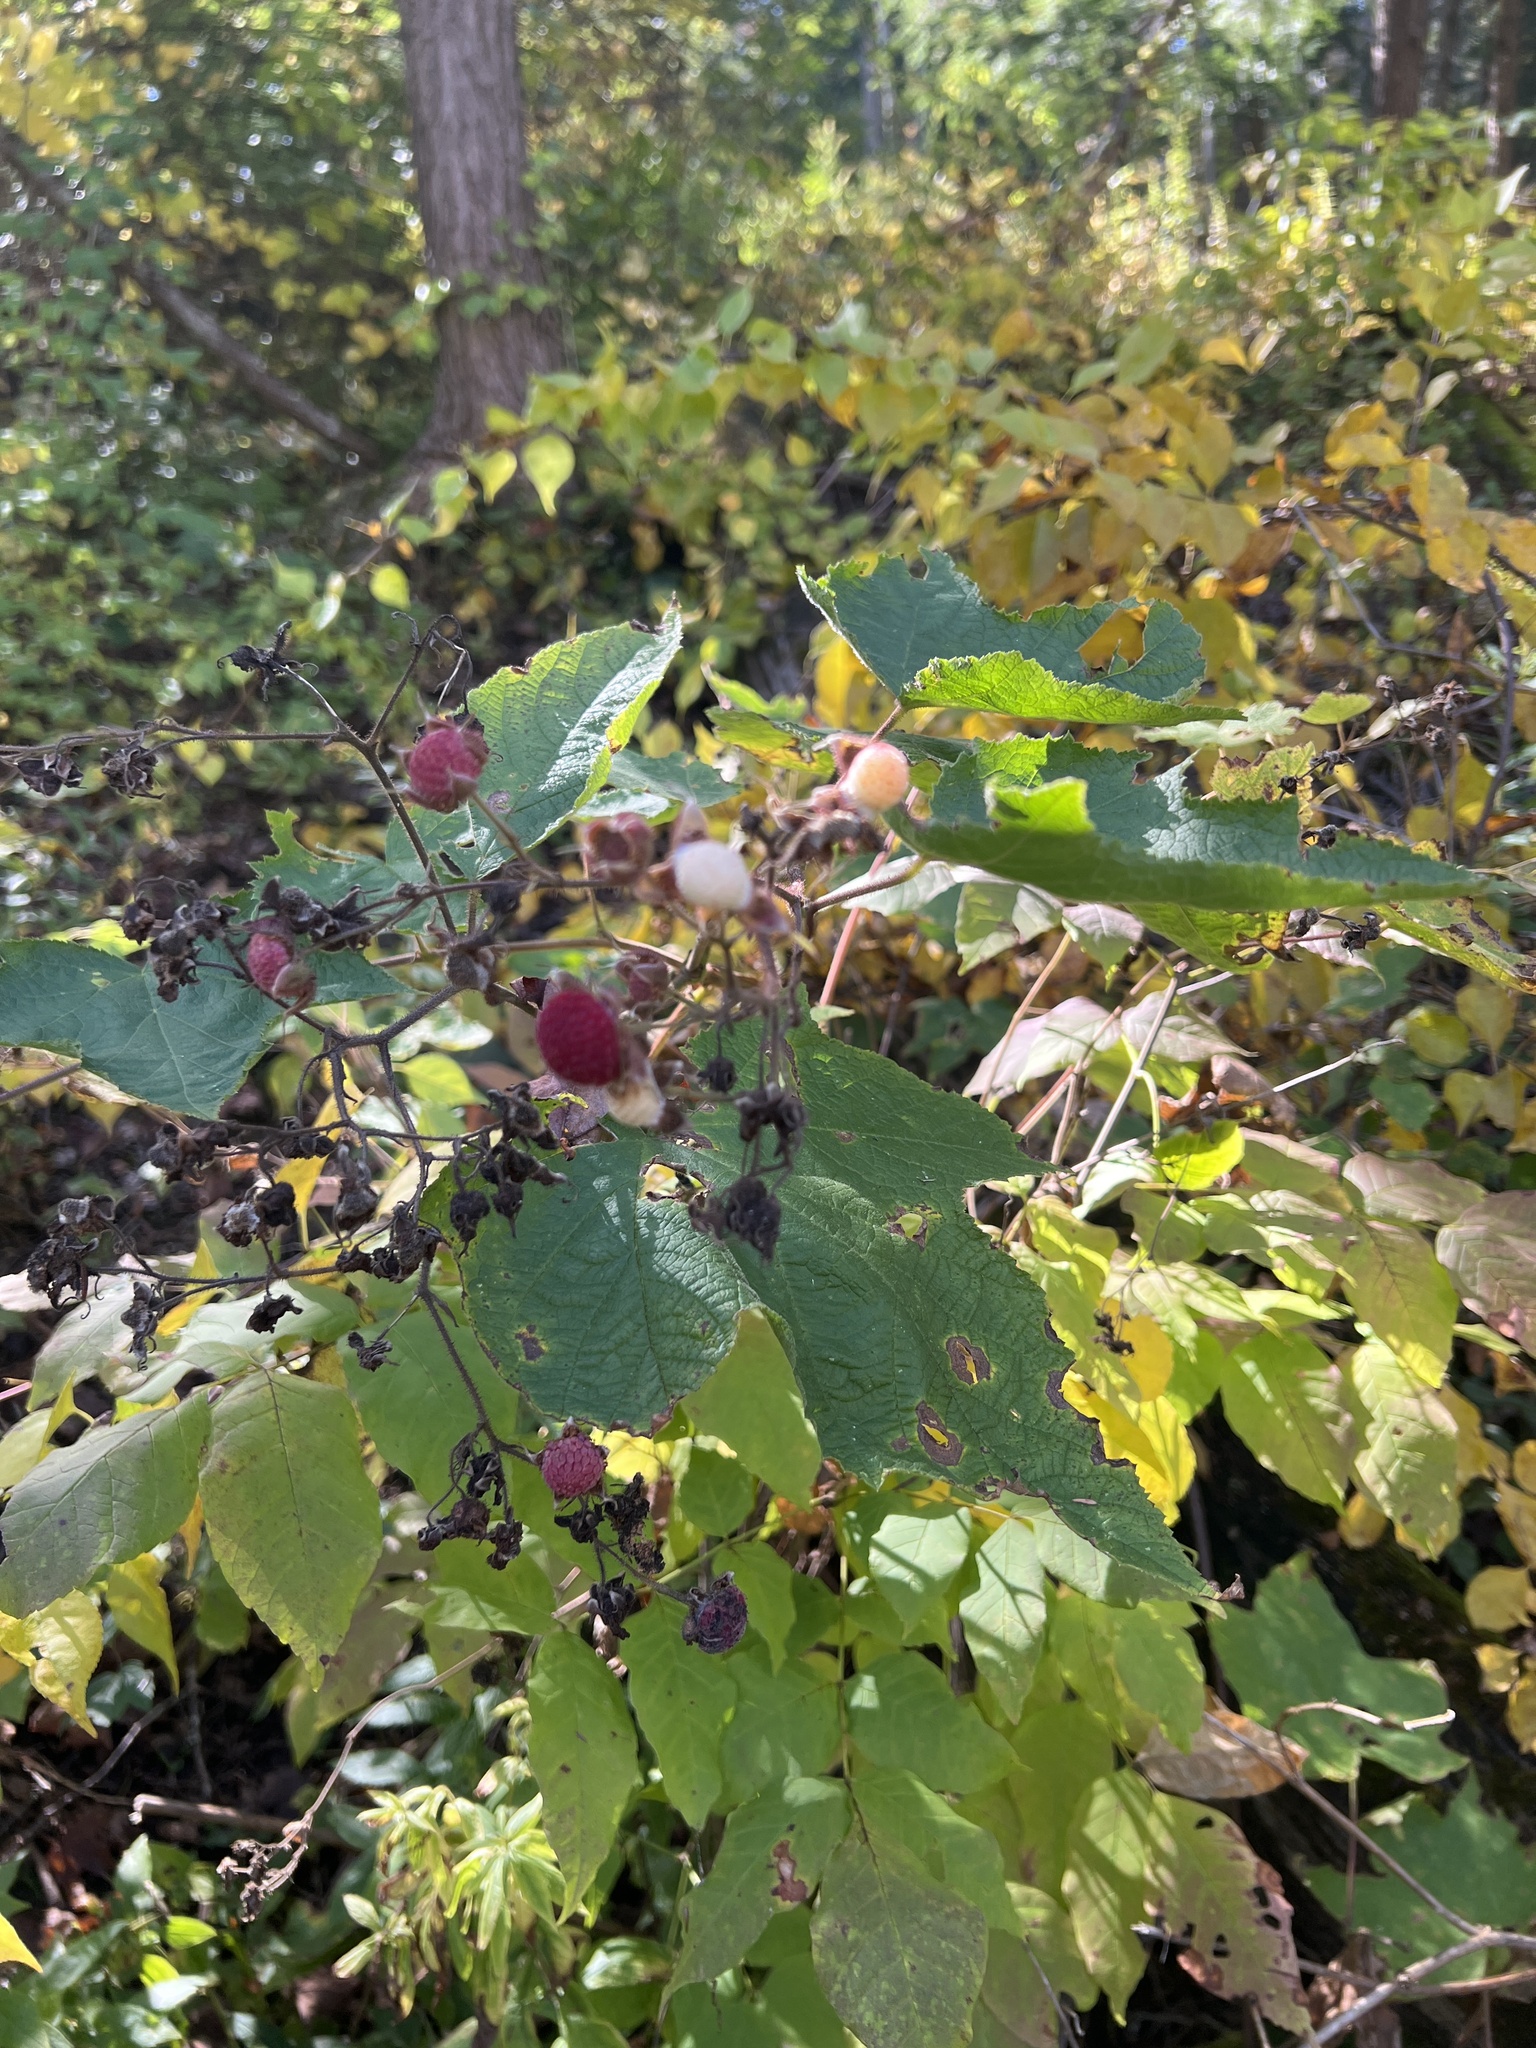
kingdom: Plantae
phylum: Tracheophyta
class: Magnoliopsida
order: Rosales
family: Rosaceae
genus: Rubus
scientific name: Rubus odoratus
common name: Purple-flowered raspberry
